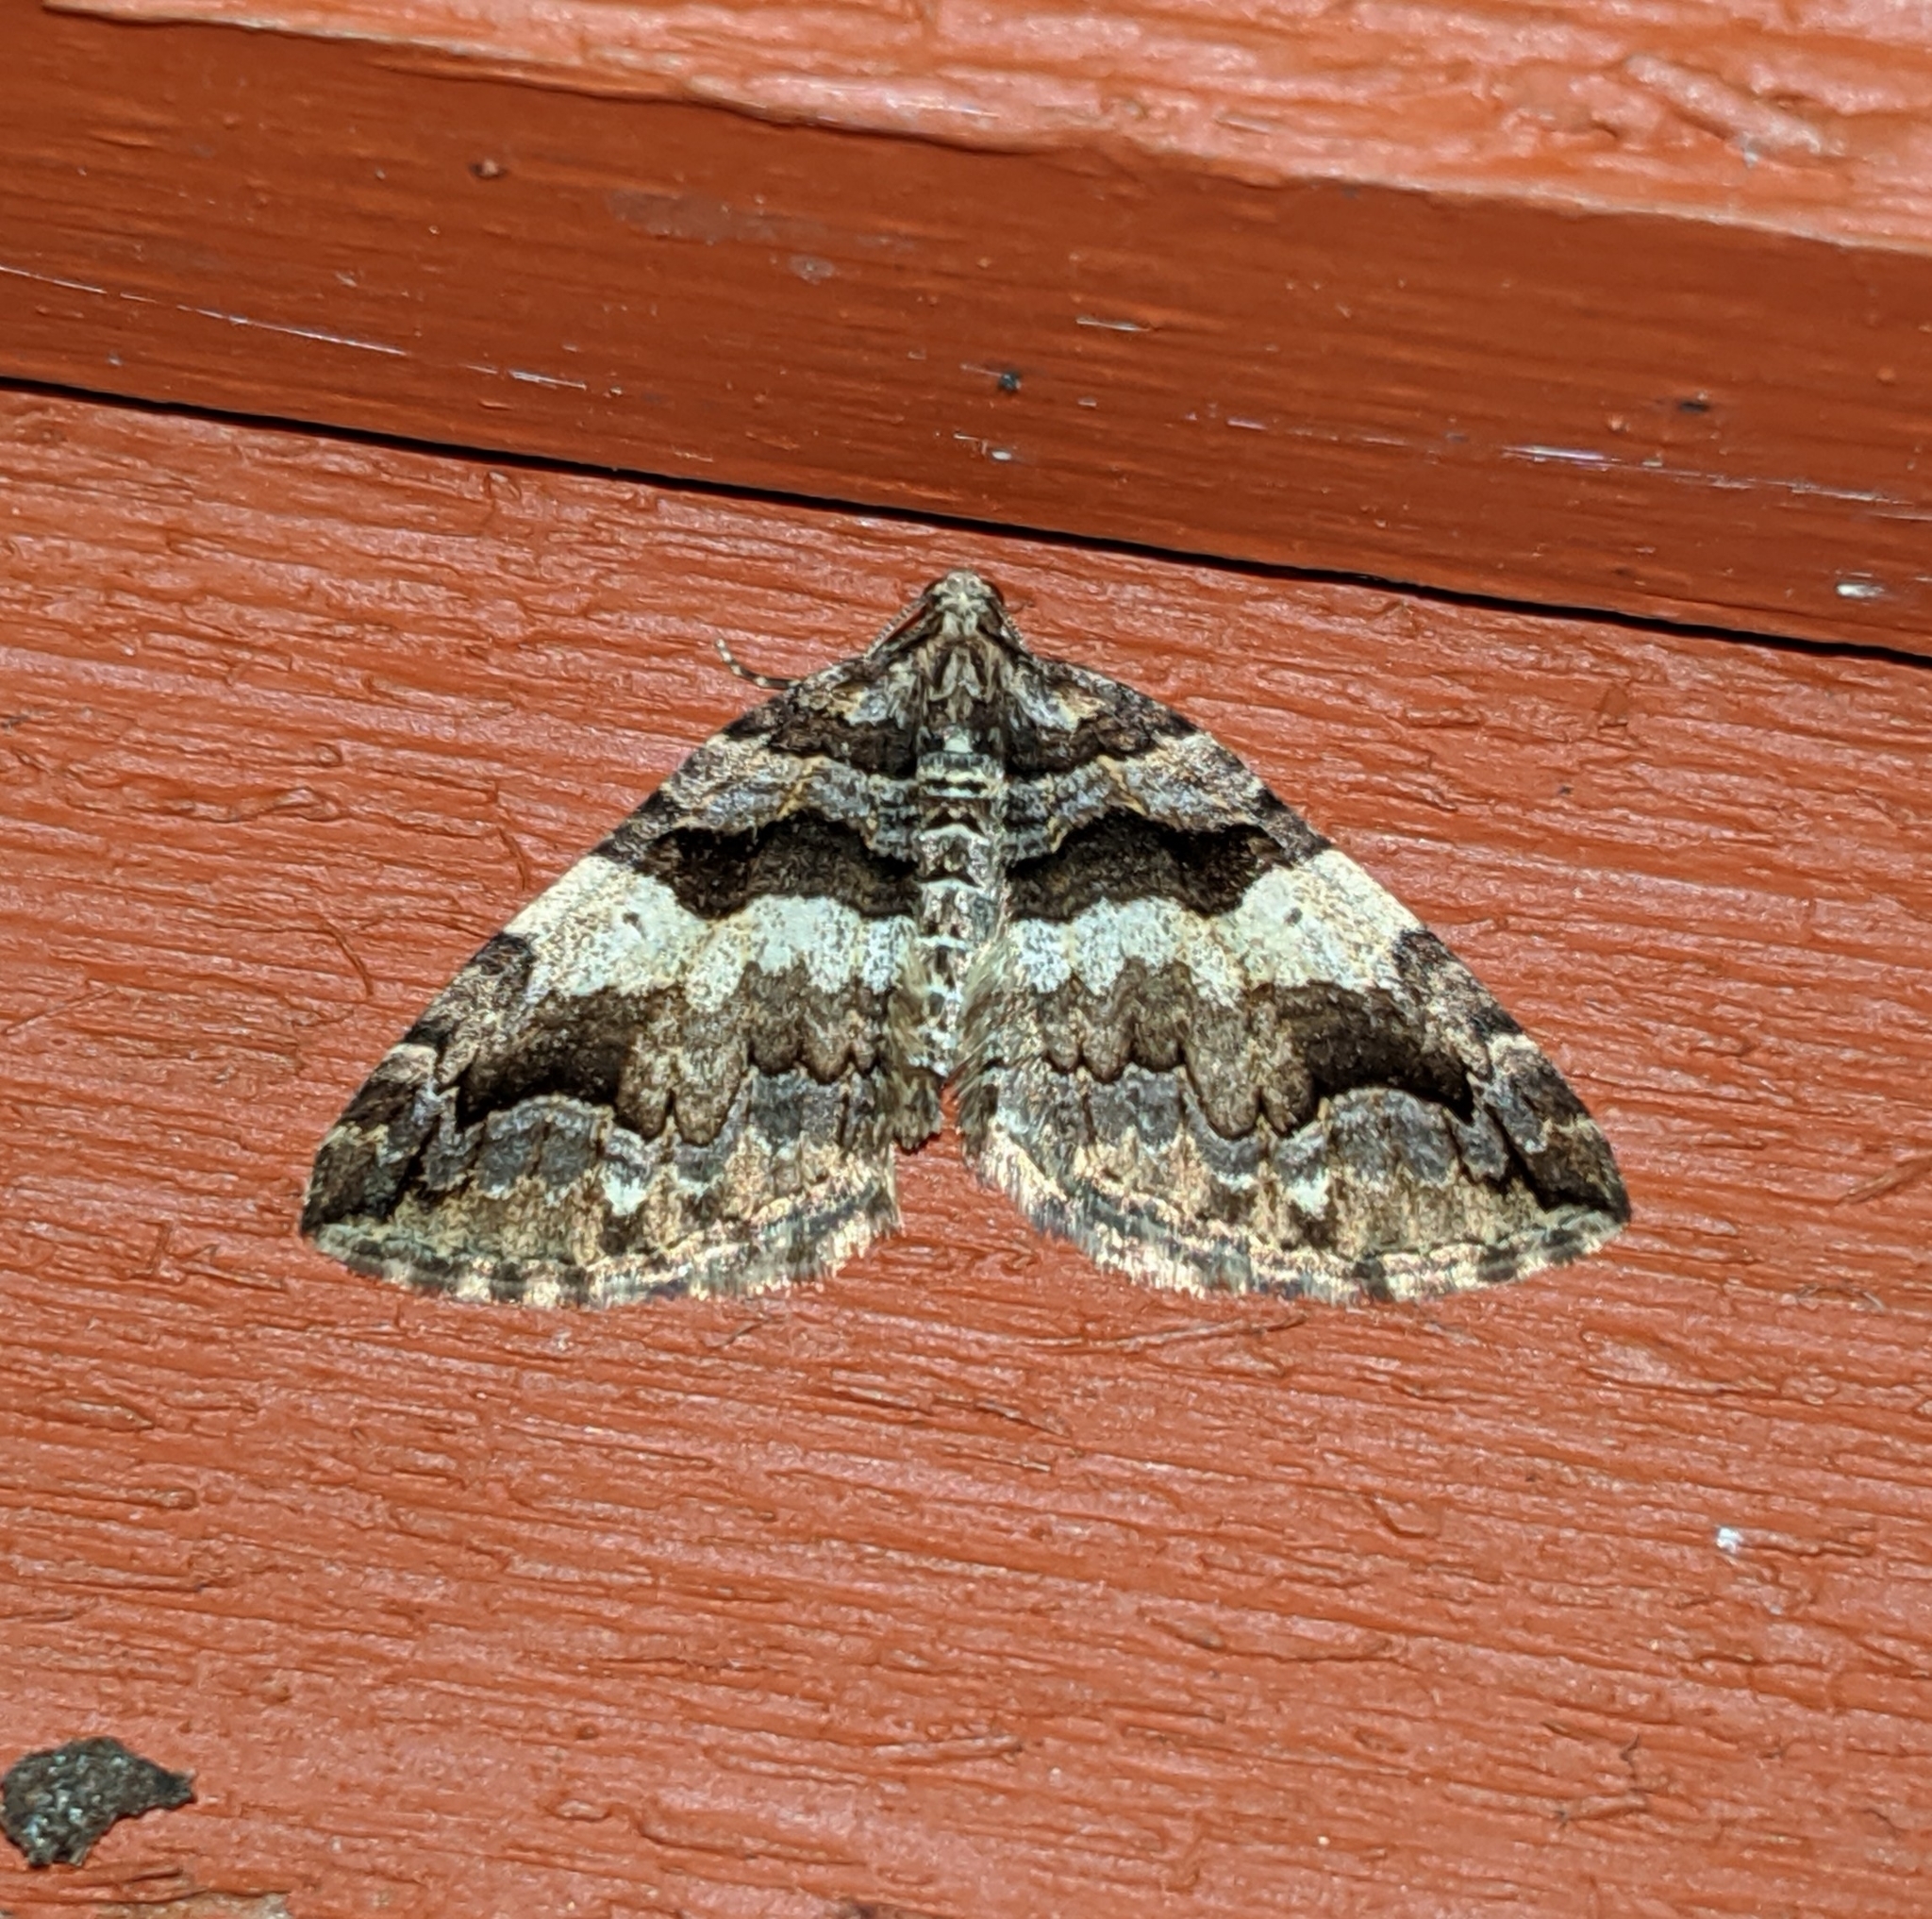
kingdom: Animalia
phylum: Arthropoda
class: Insecta
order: Lepidoptera
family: Geometridae
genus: Anticlea
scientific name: Anticlea vasiliata
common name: Variable carpet
